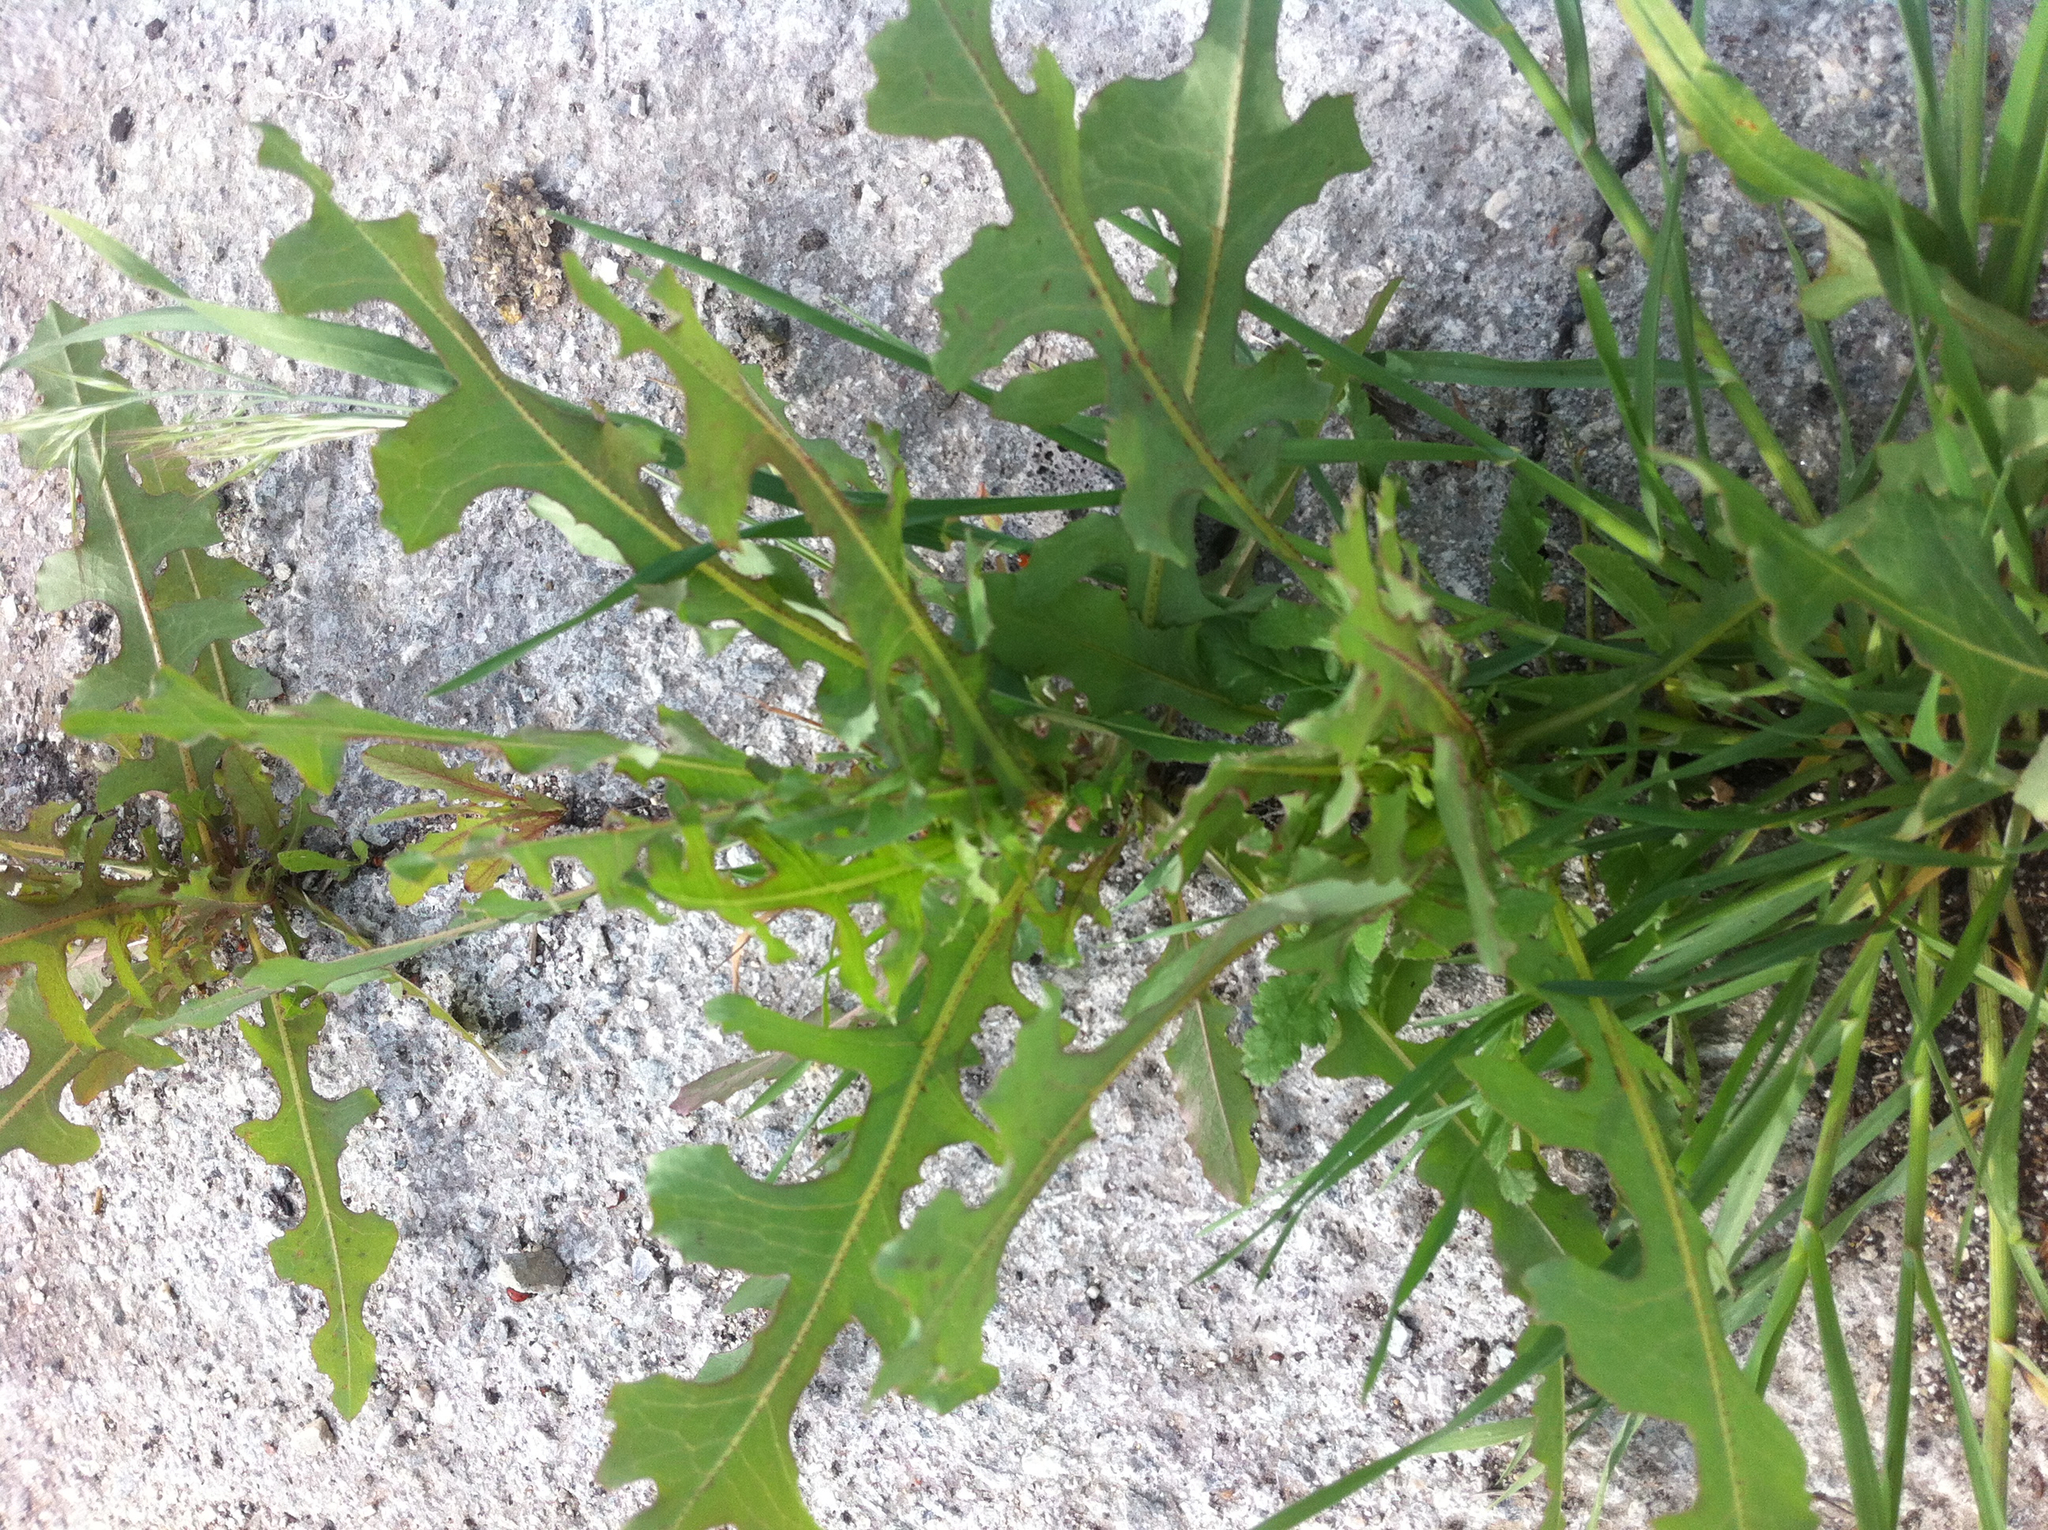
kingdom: Plantae
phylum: Tracheophyta
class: Magnoliopsida
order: Asterales
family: Asteraceae
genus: Lactuca
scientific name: Lactuca serriola
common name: Prickly lettuce
